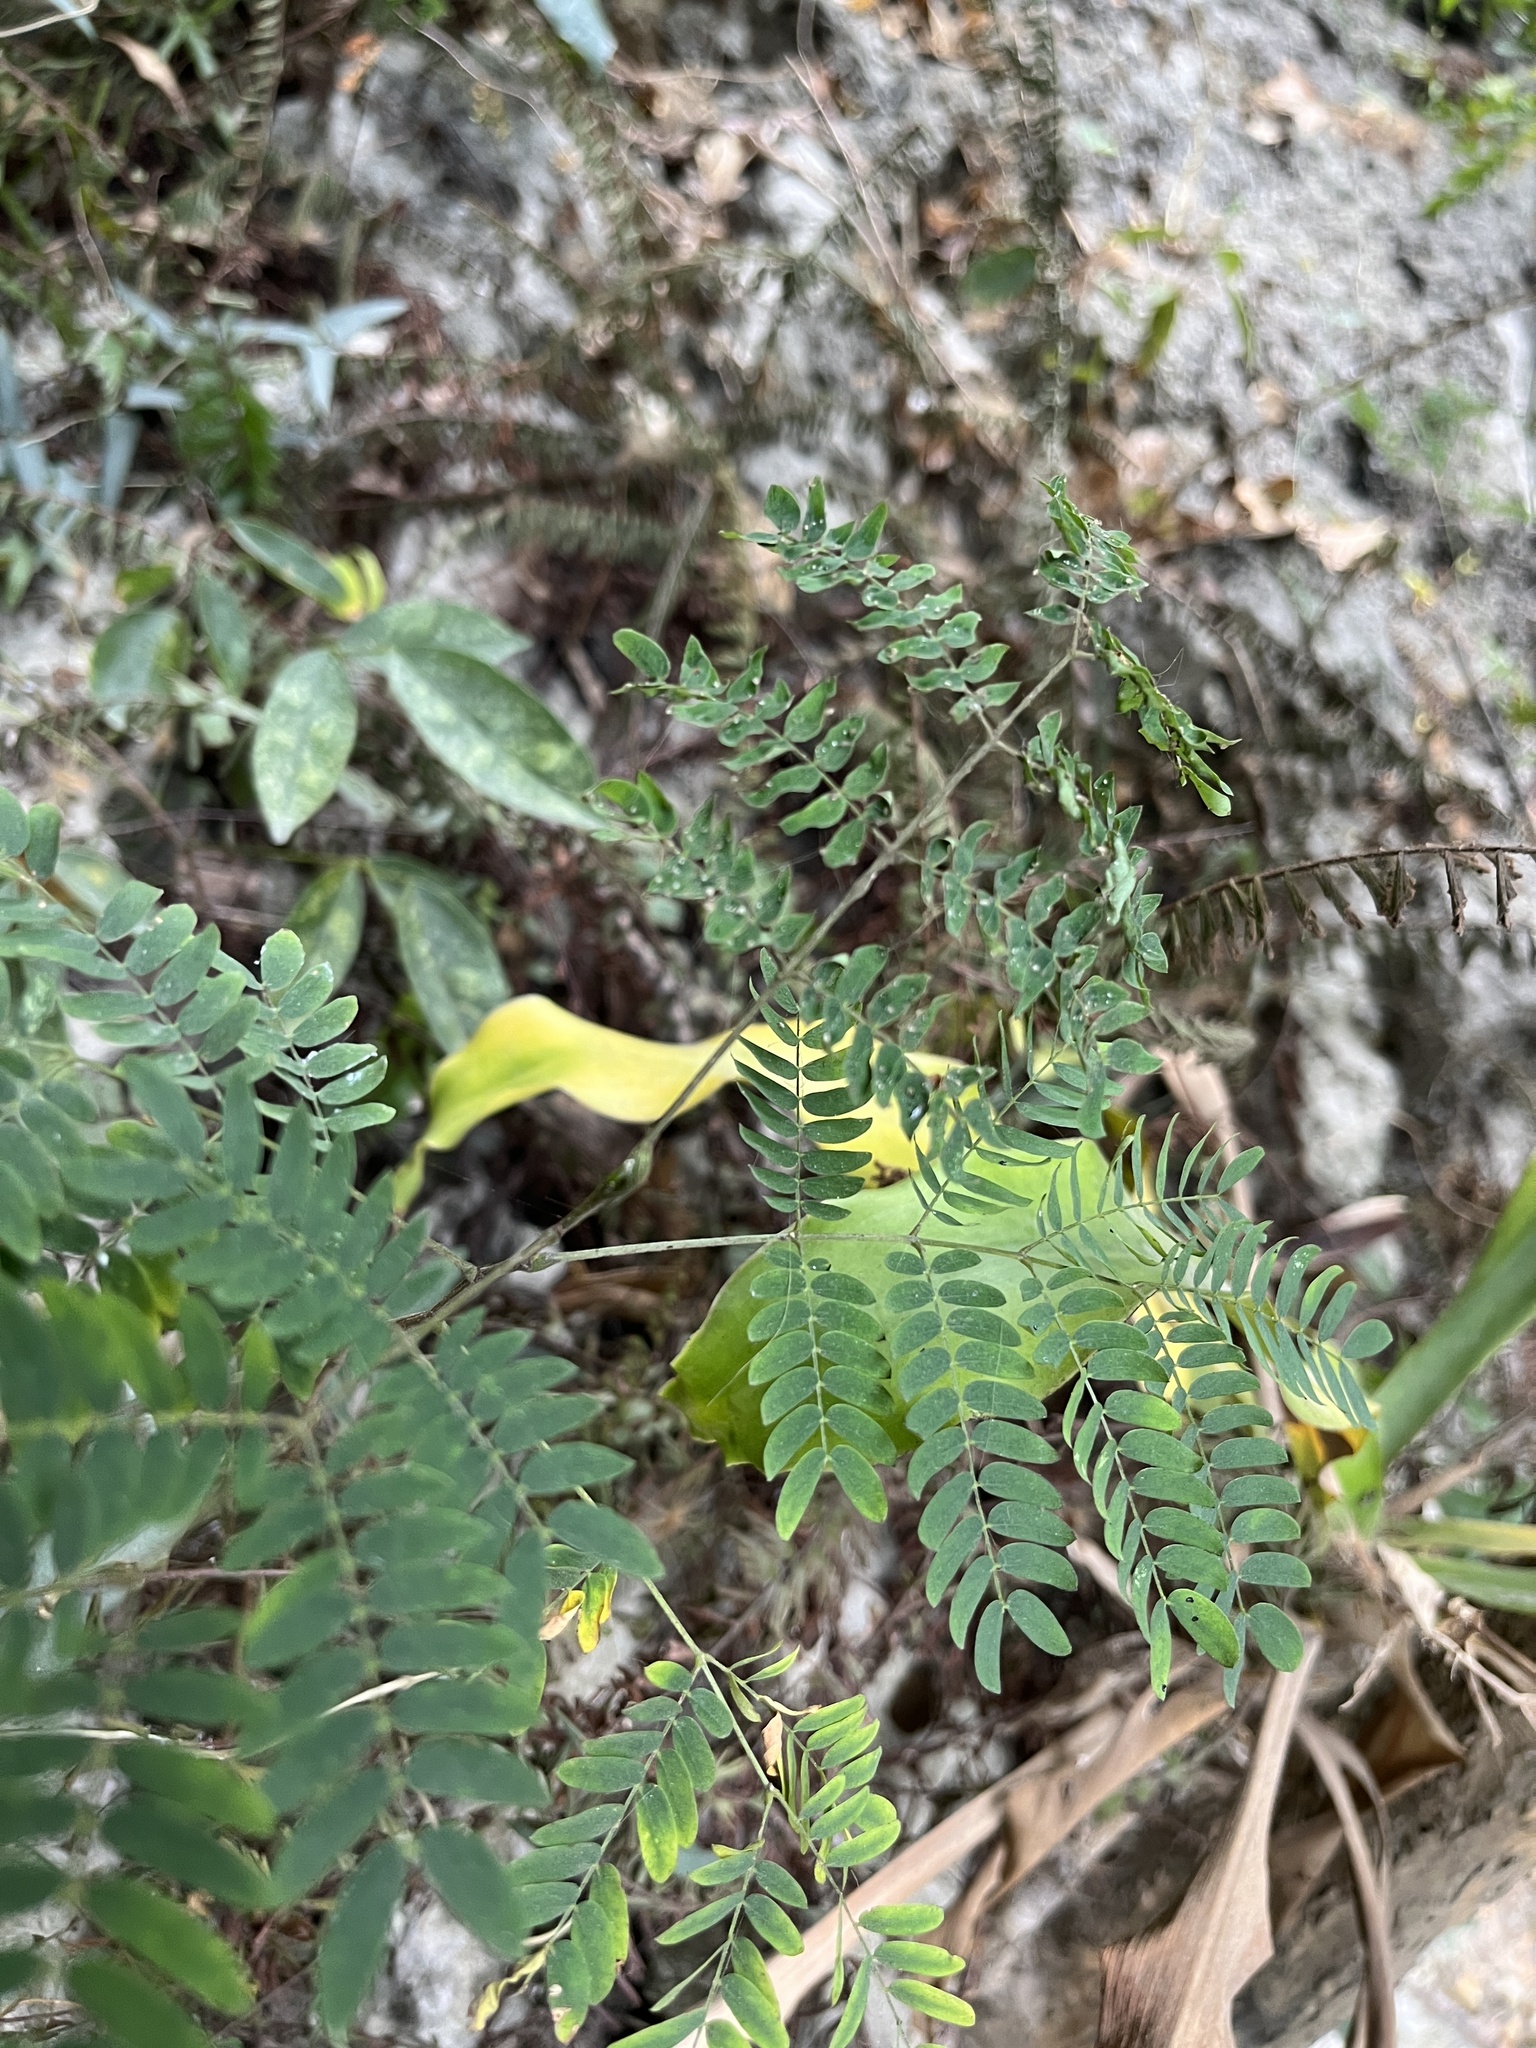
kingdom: Plantae
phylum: Tracheophyta
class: Magnoliopsida
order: Fabales
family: Fabaceae
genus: Leucaena
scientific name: Leucaena leucocephala
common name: White leadtree
